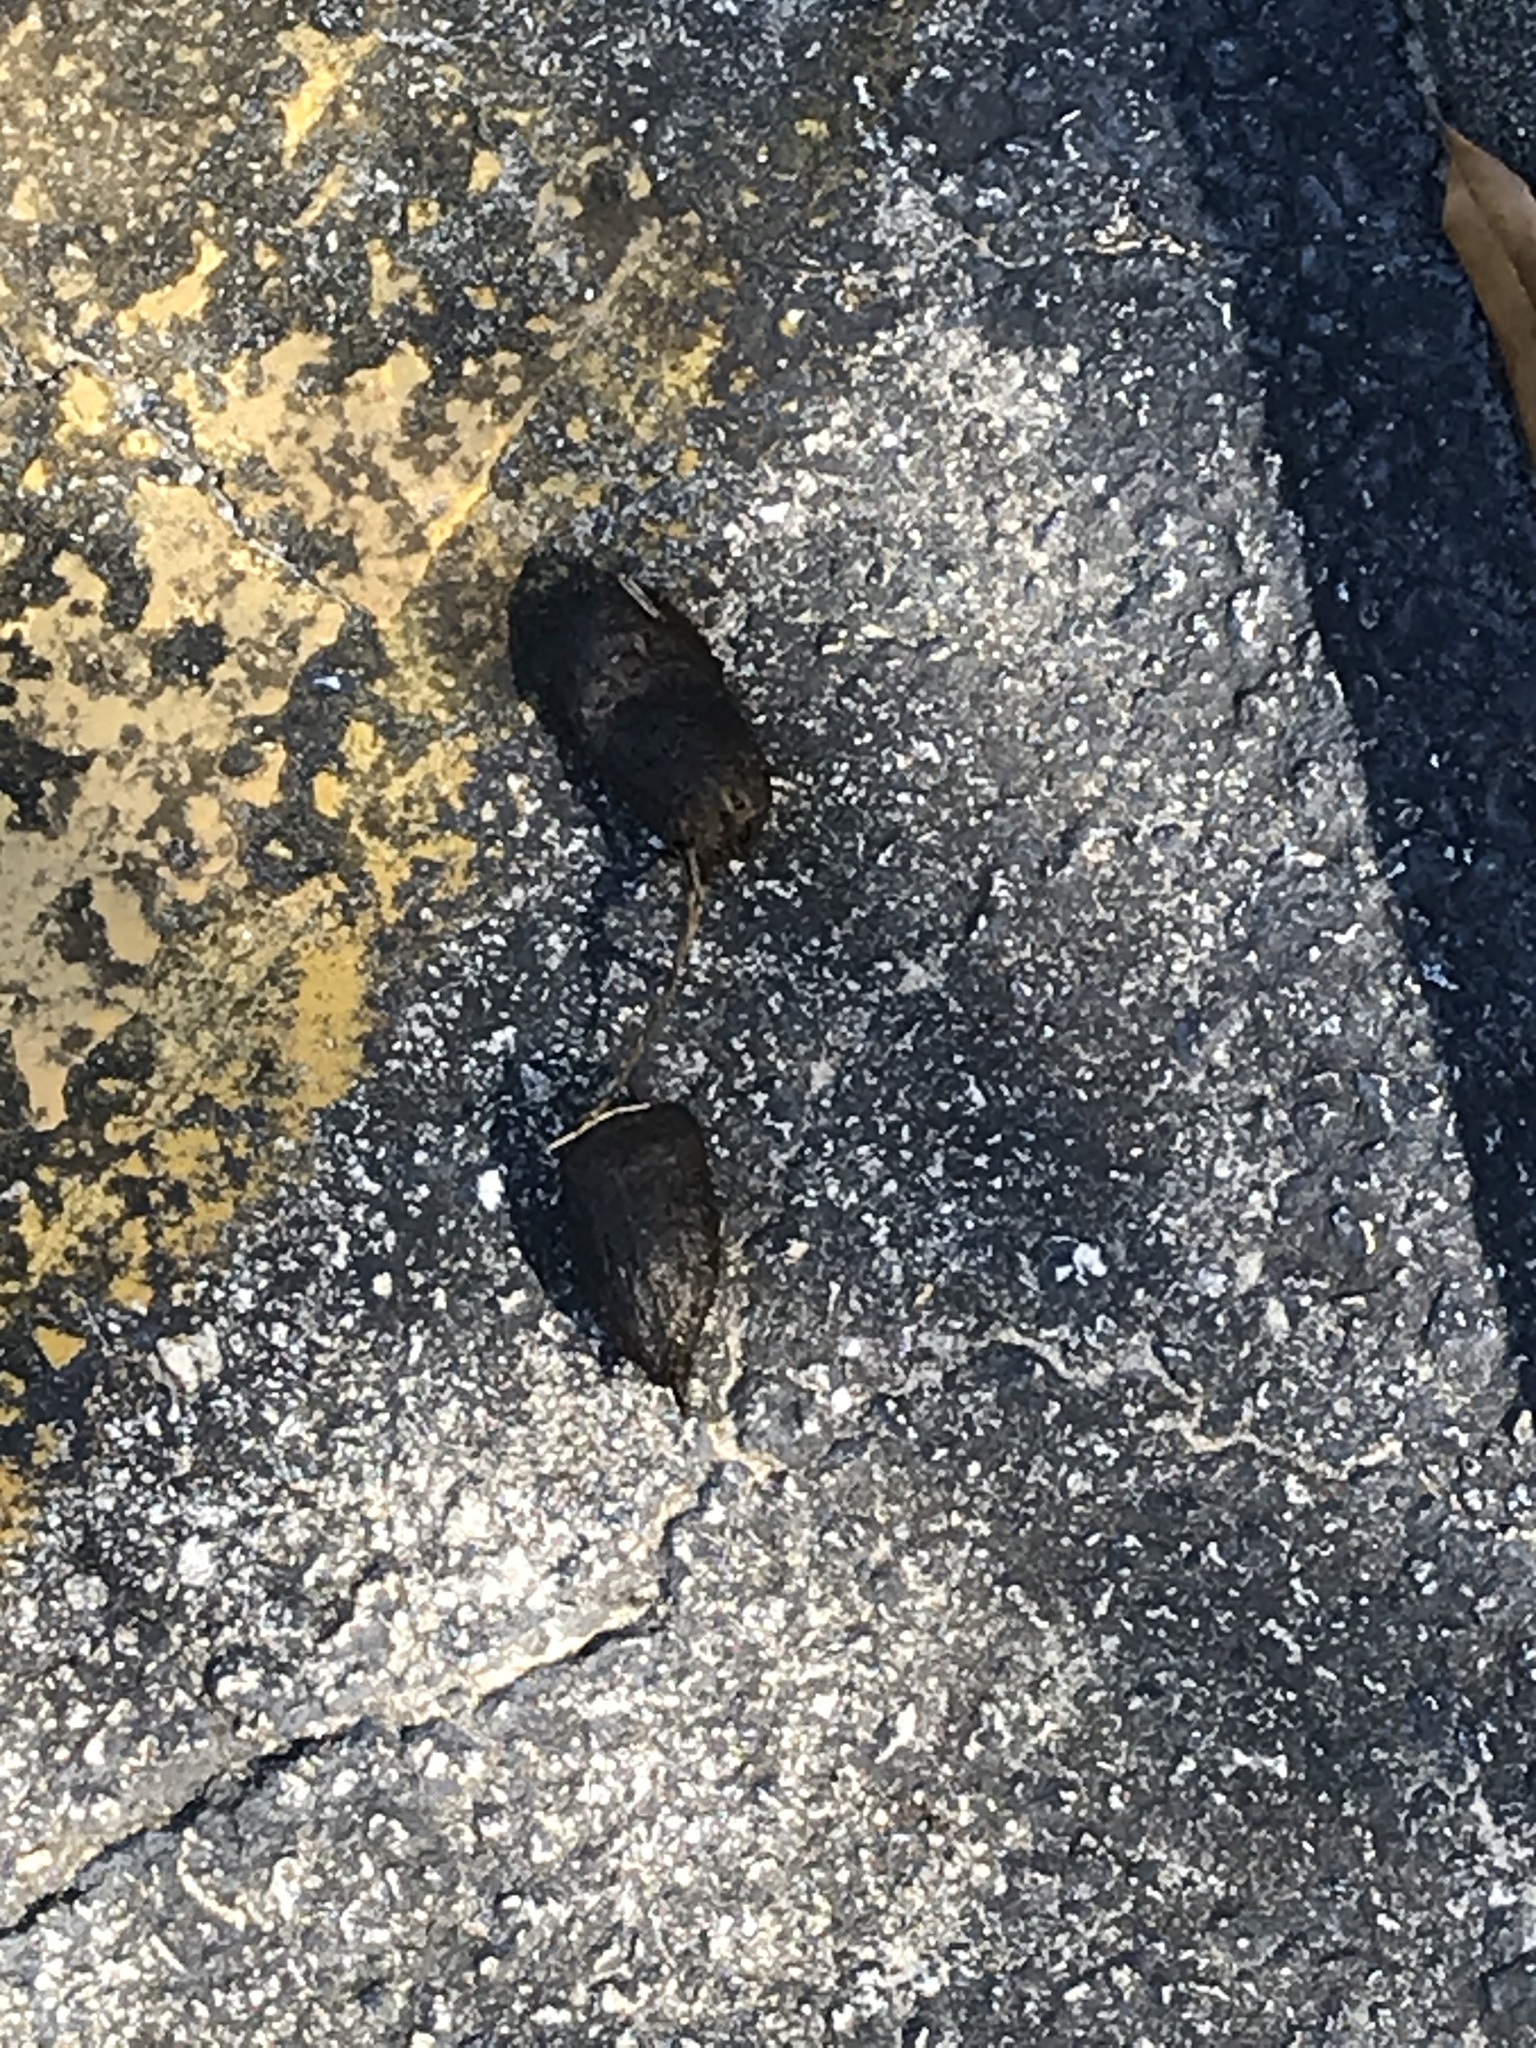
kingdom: Animalia
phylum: Chordata
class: Testudines
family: Testudinidae
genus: Gopherus
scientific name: Gopherus polyphemus
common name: Florida gopher tortoise
